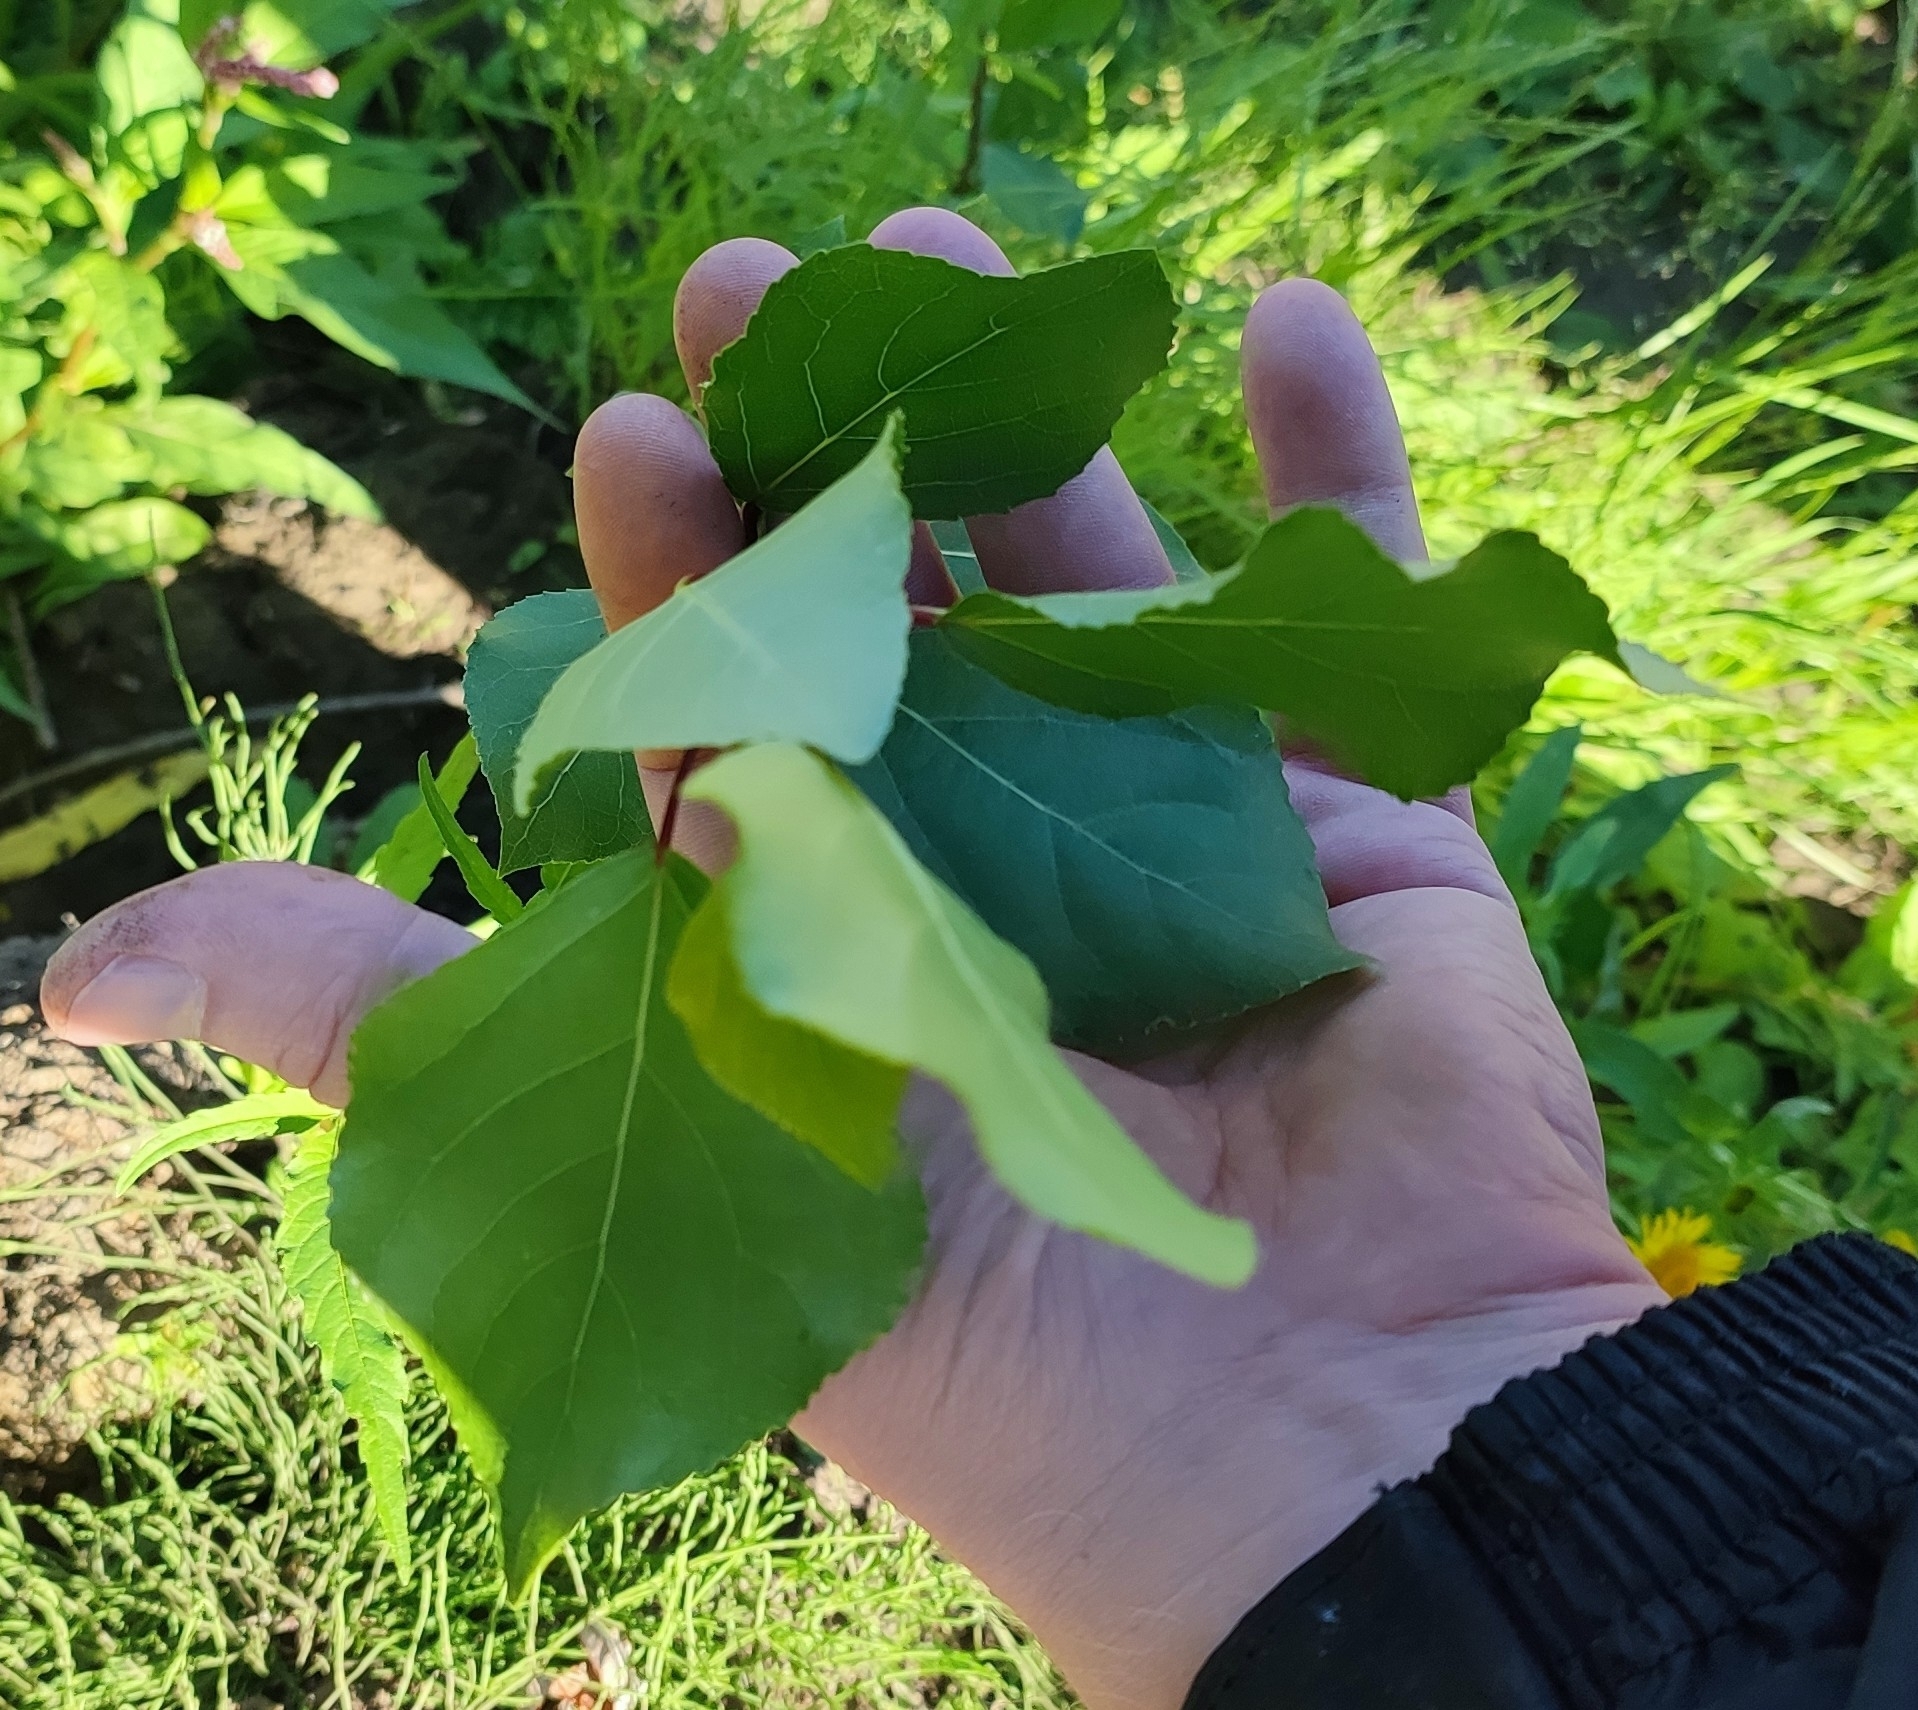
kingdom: Plantae
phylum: Tracheophyta
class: Magnoliopsida
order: Malpighiales
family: Salicaceae
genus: Populus
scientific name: Populus nigra
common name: Black poplar
